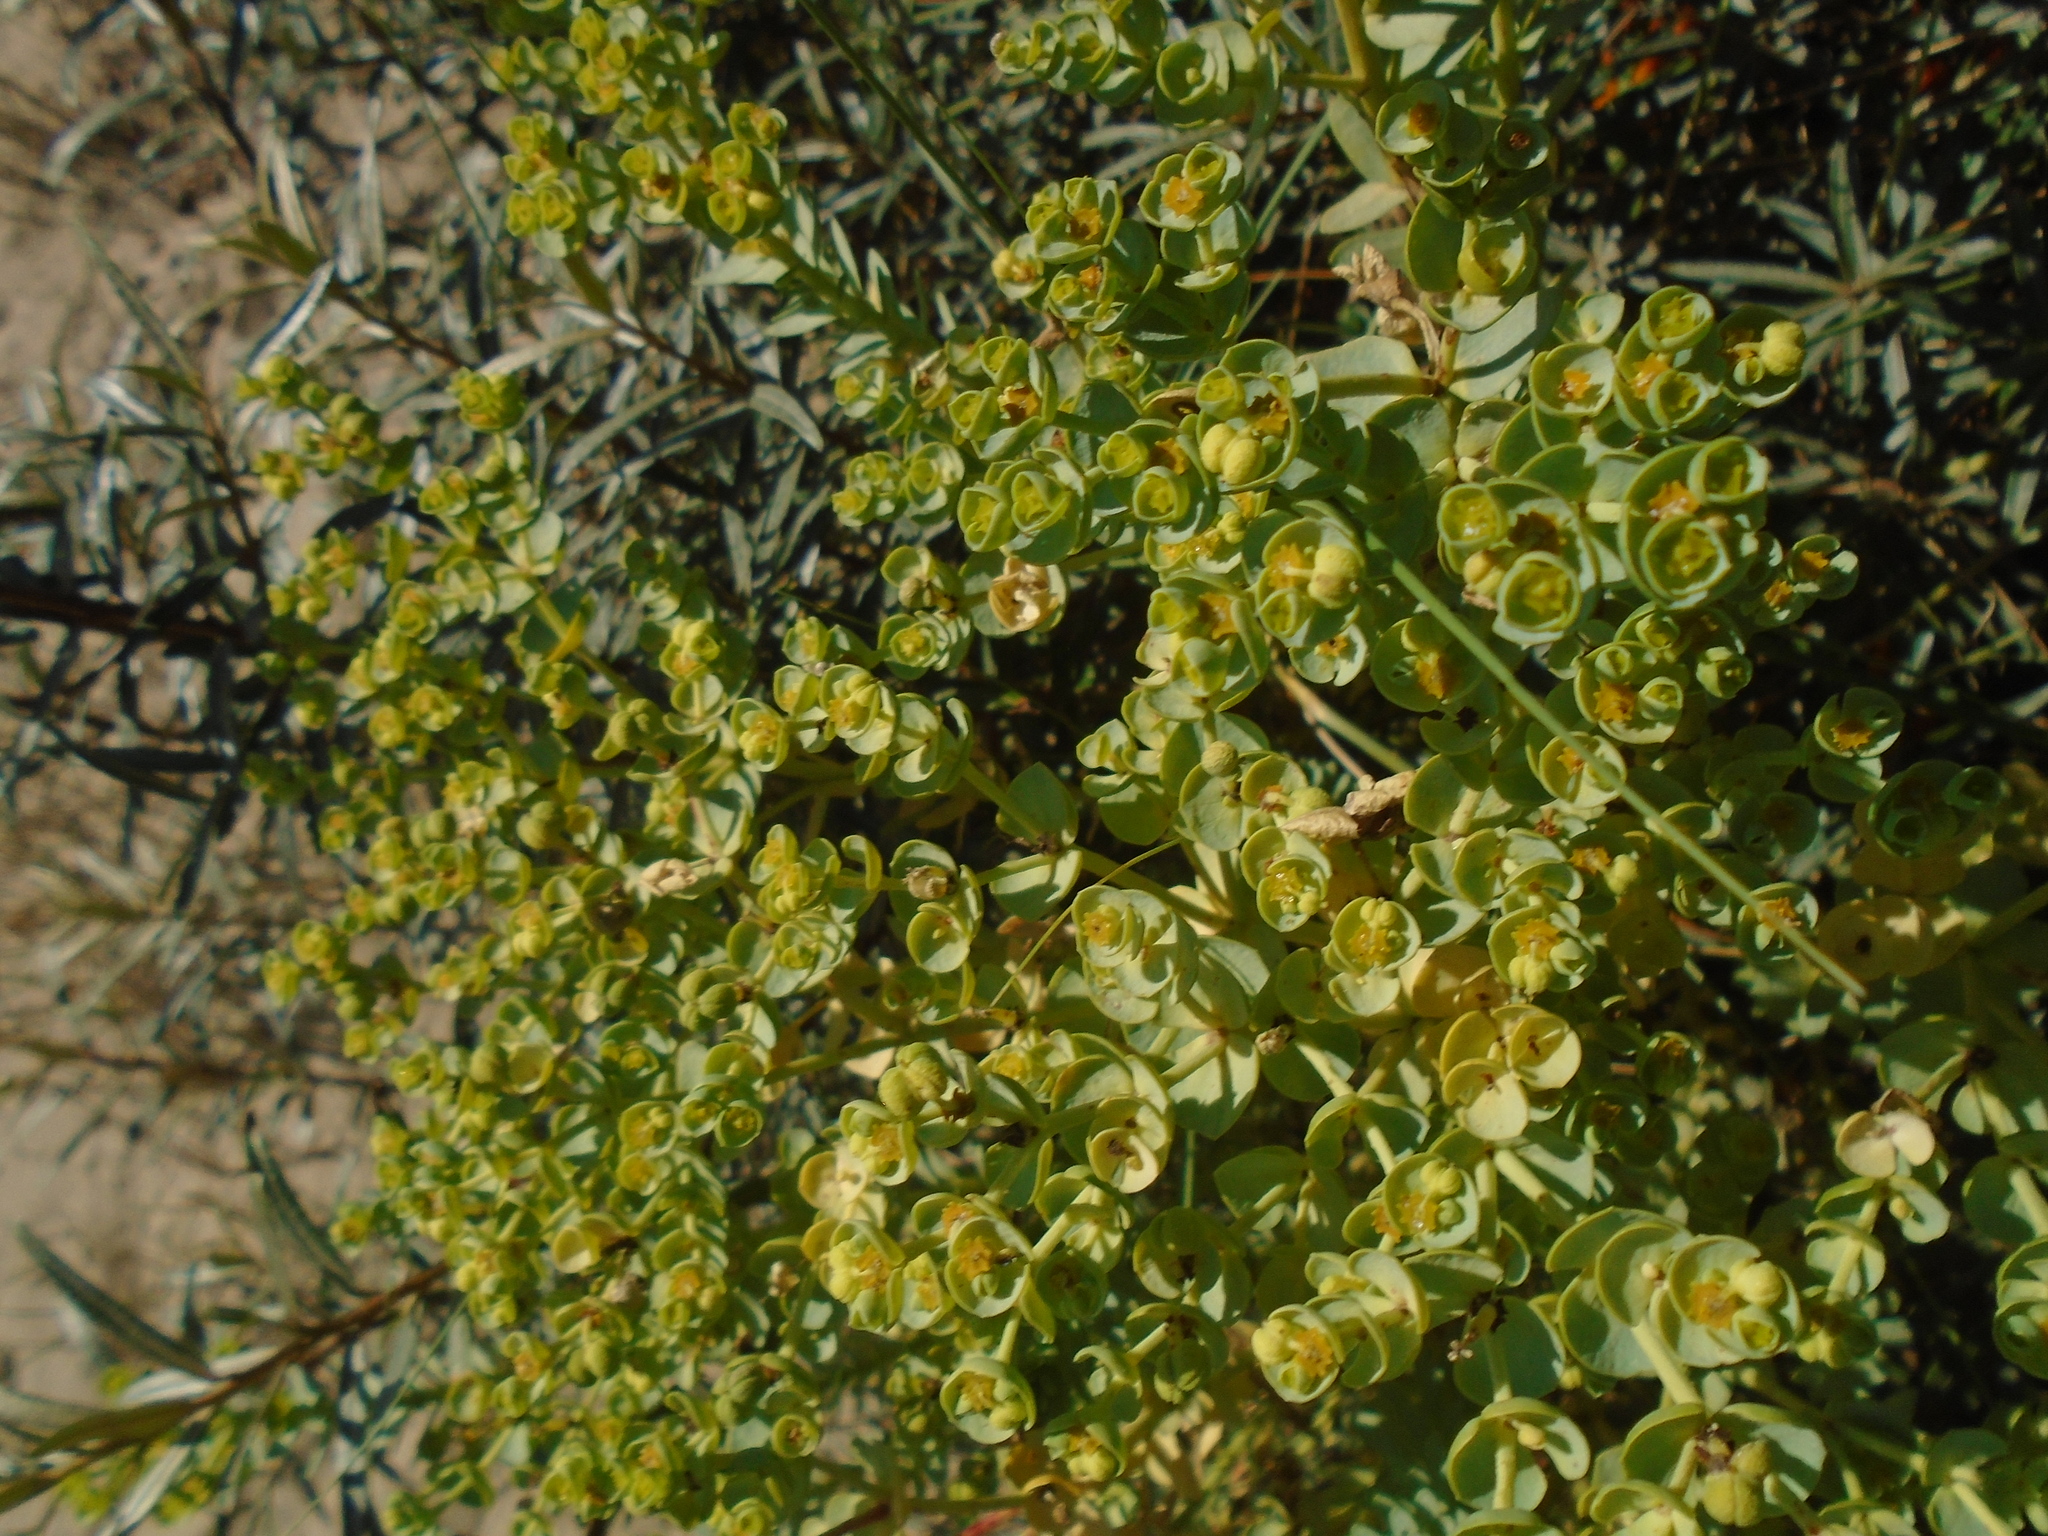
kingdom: Plantae
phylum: Tracheophyta
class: Magnoliopsida
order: Malpighiales
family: Euphorbiaceae
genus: Euphorbia
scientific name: Euphorbia paralias
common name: Sea spurge
